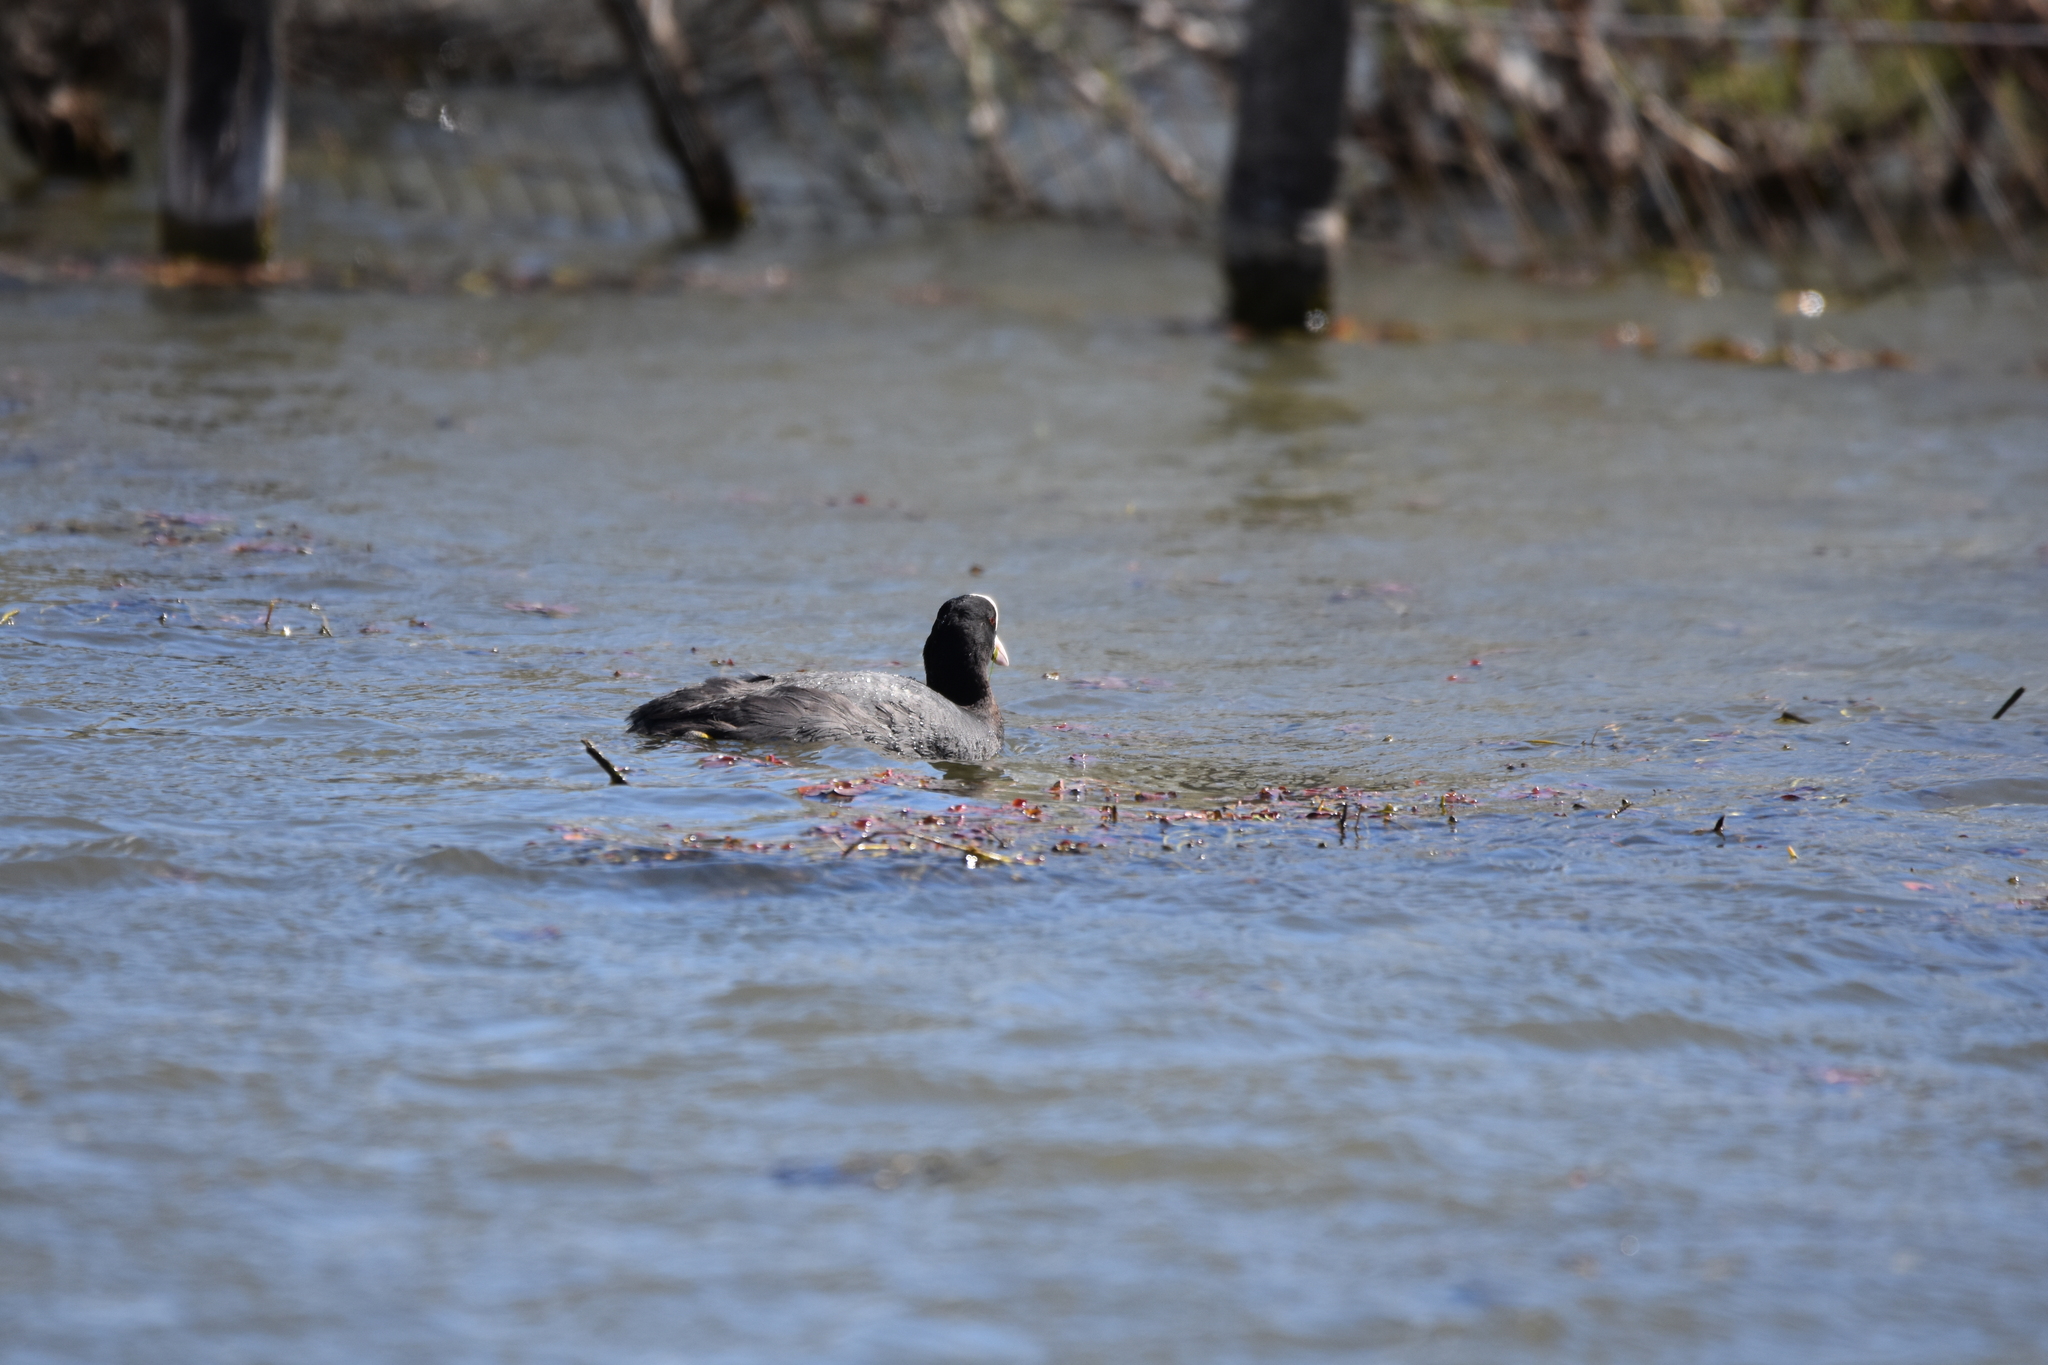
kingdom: Animalia
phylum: Chordata
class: Aves
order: Gruiformes
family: Rallidae
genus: Fulica
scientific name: Fulica atra
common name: Eurasian coot
